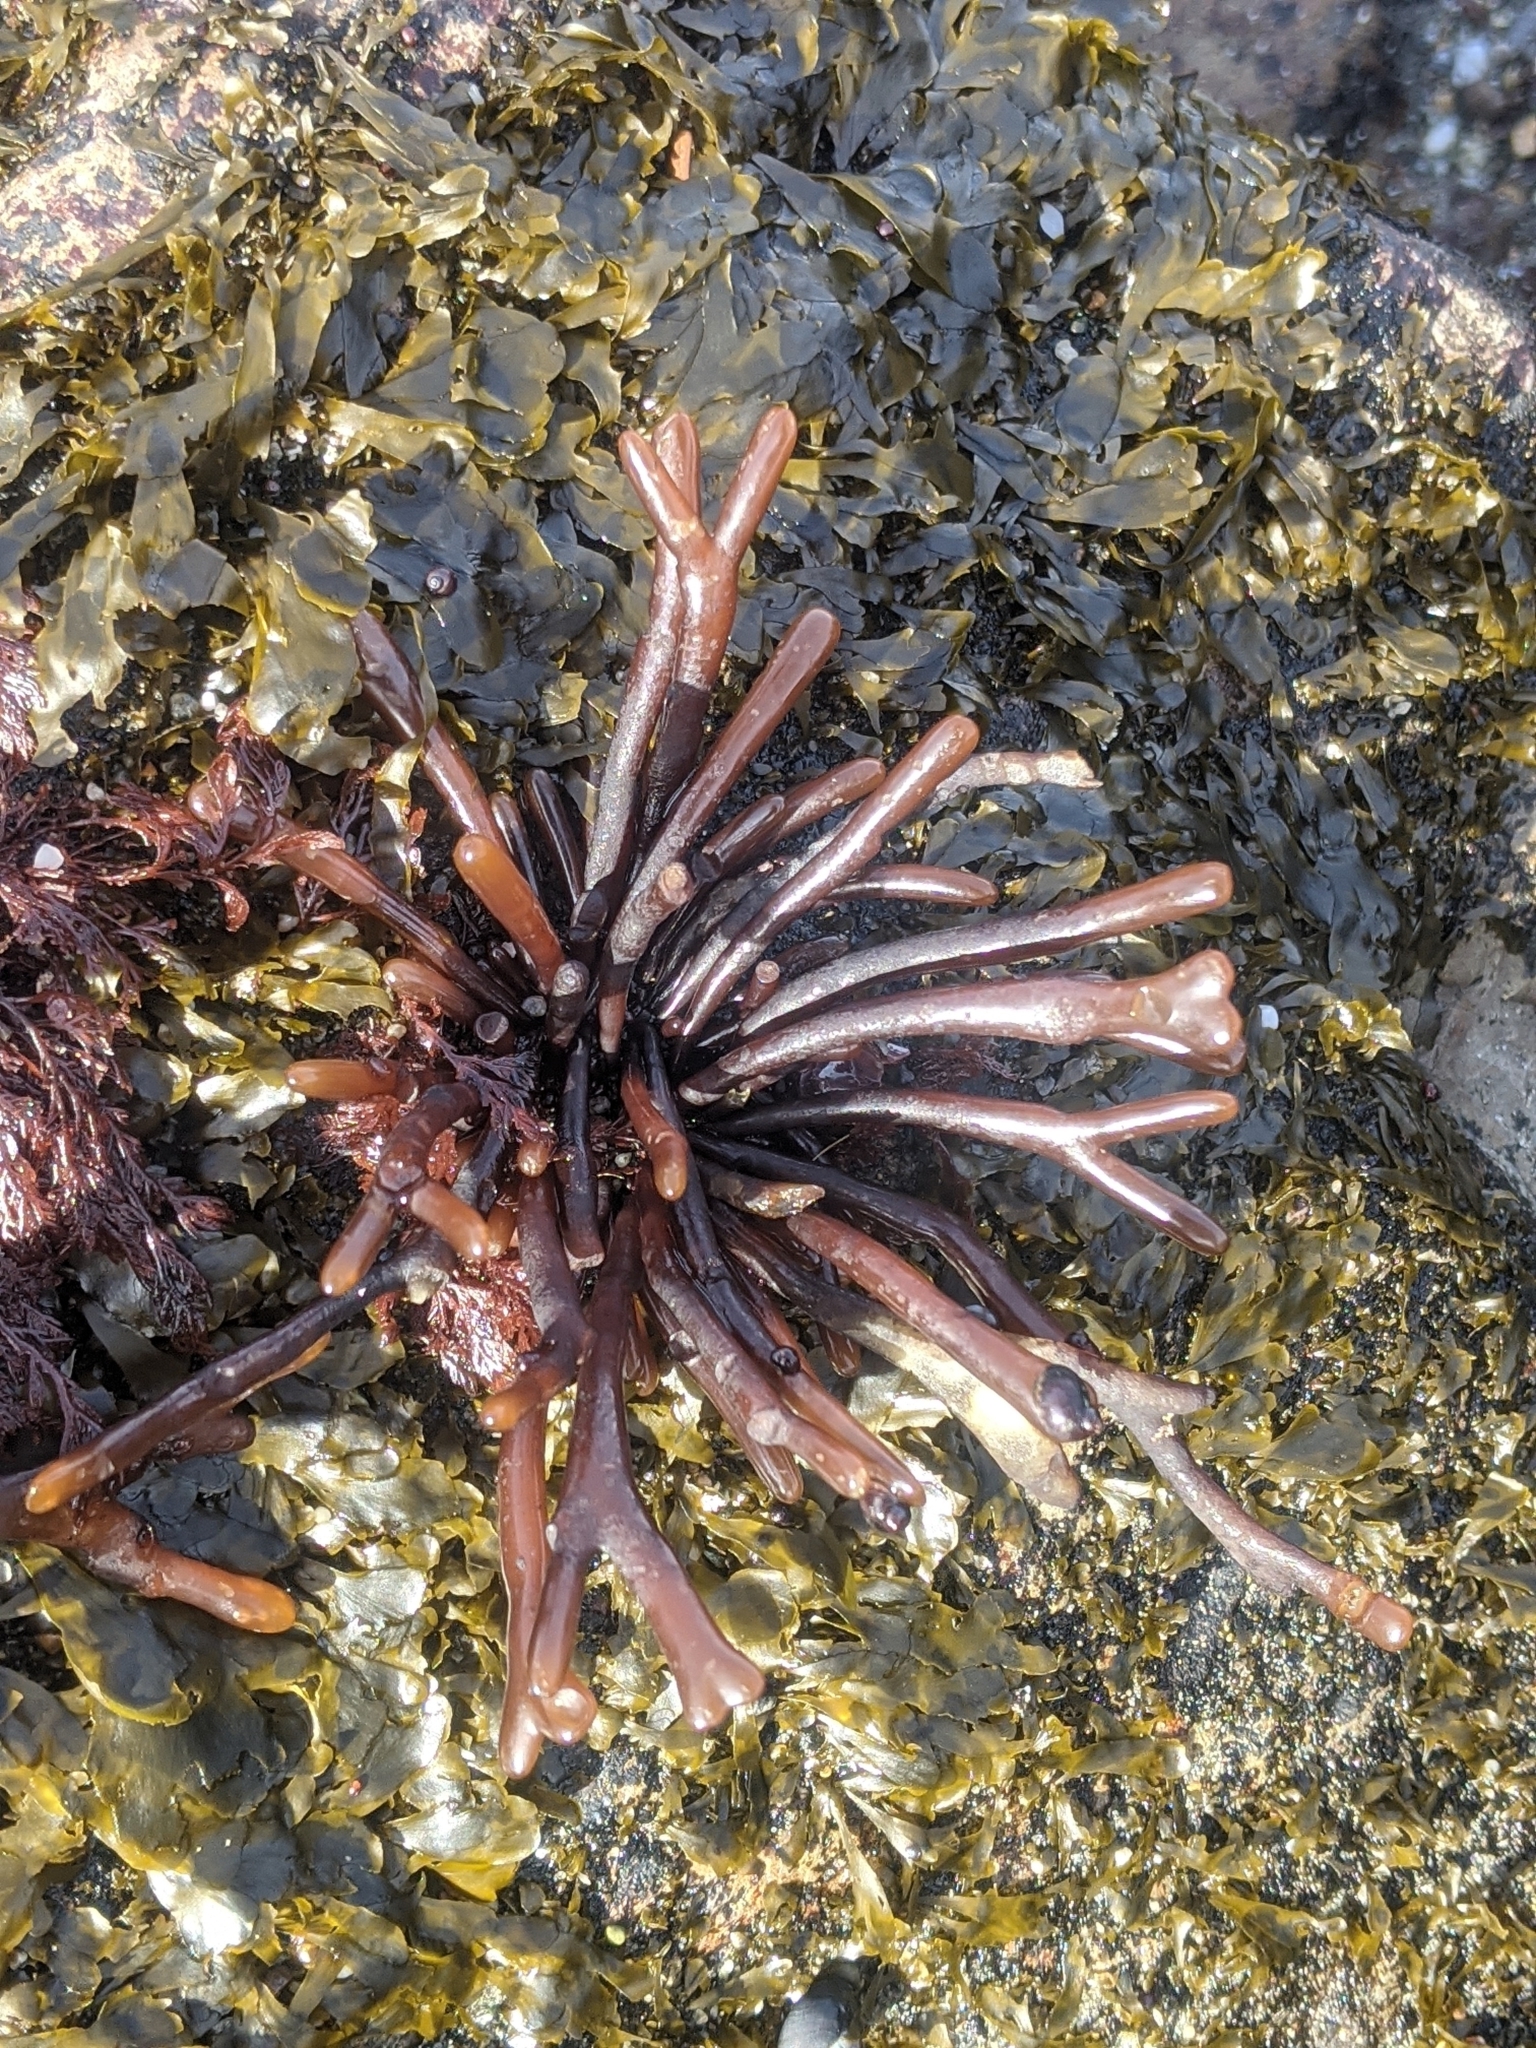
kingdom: Plantae
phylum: Rhodophyta
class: Florideophyceae
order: Gigartinales
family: Phyllophoraceae
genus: Ahnfeltiopsis
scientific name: Ahnfeltiopsis linearis
